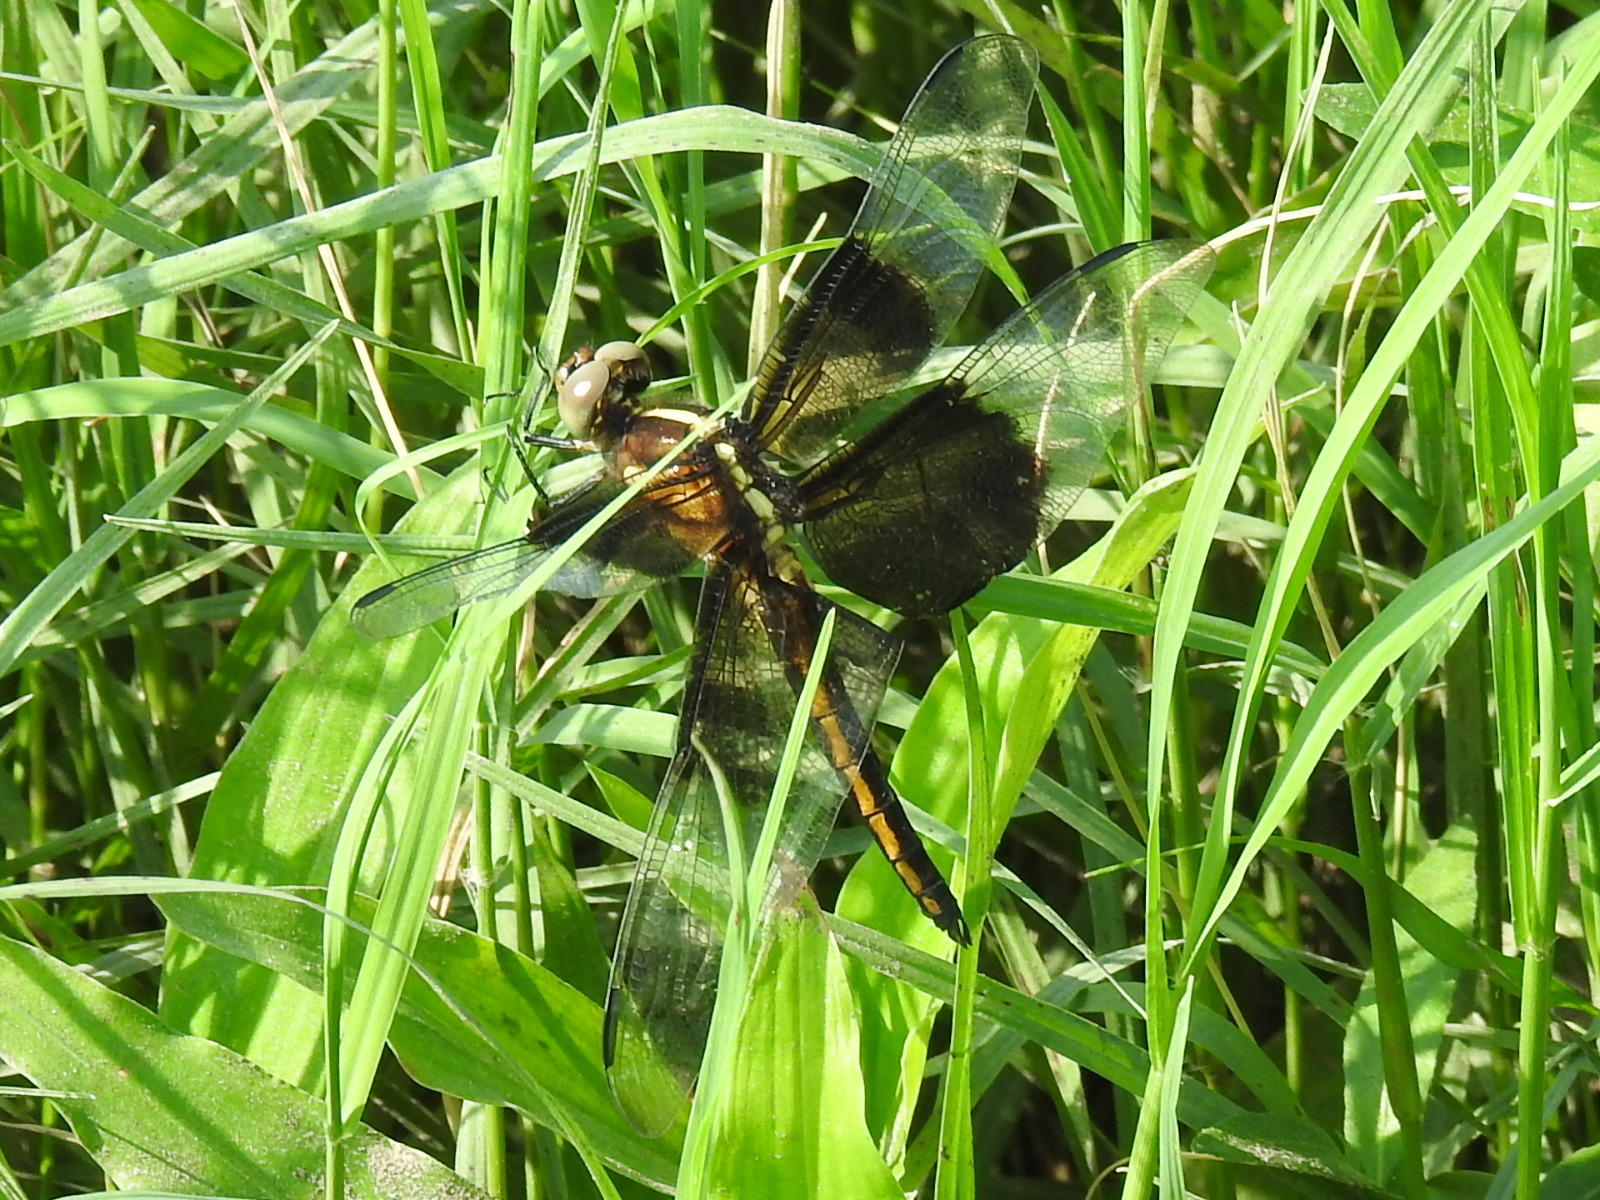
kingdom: Animalia
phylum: Arthropoda
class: Insecta
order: Odonata
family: Libellulidae
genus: Libellula
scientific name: Libellula luctuosa
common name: Widow skimmer
